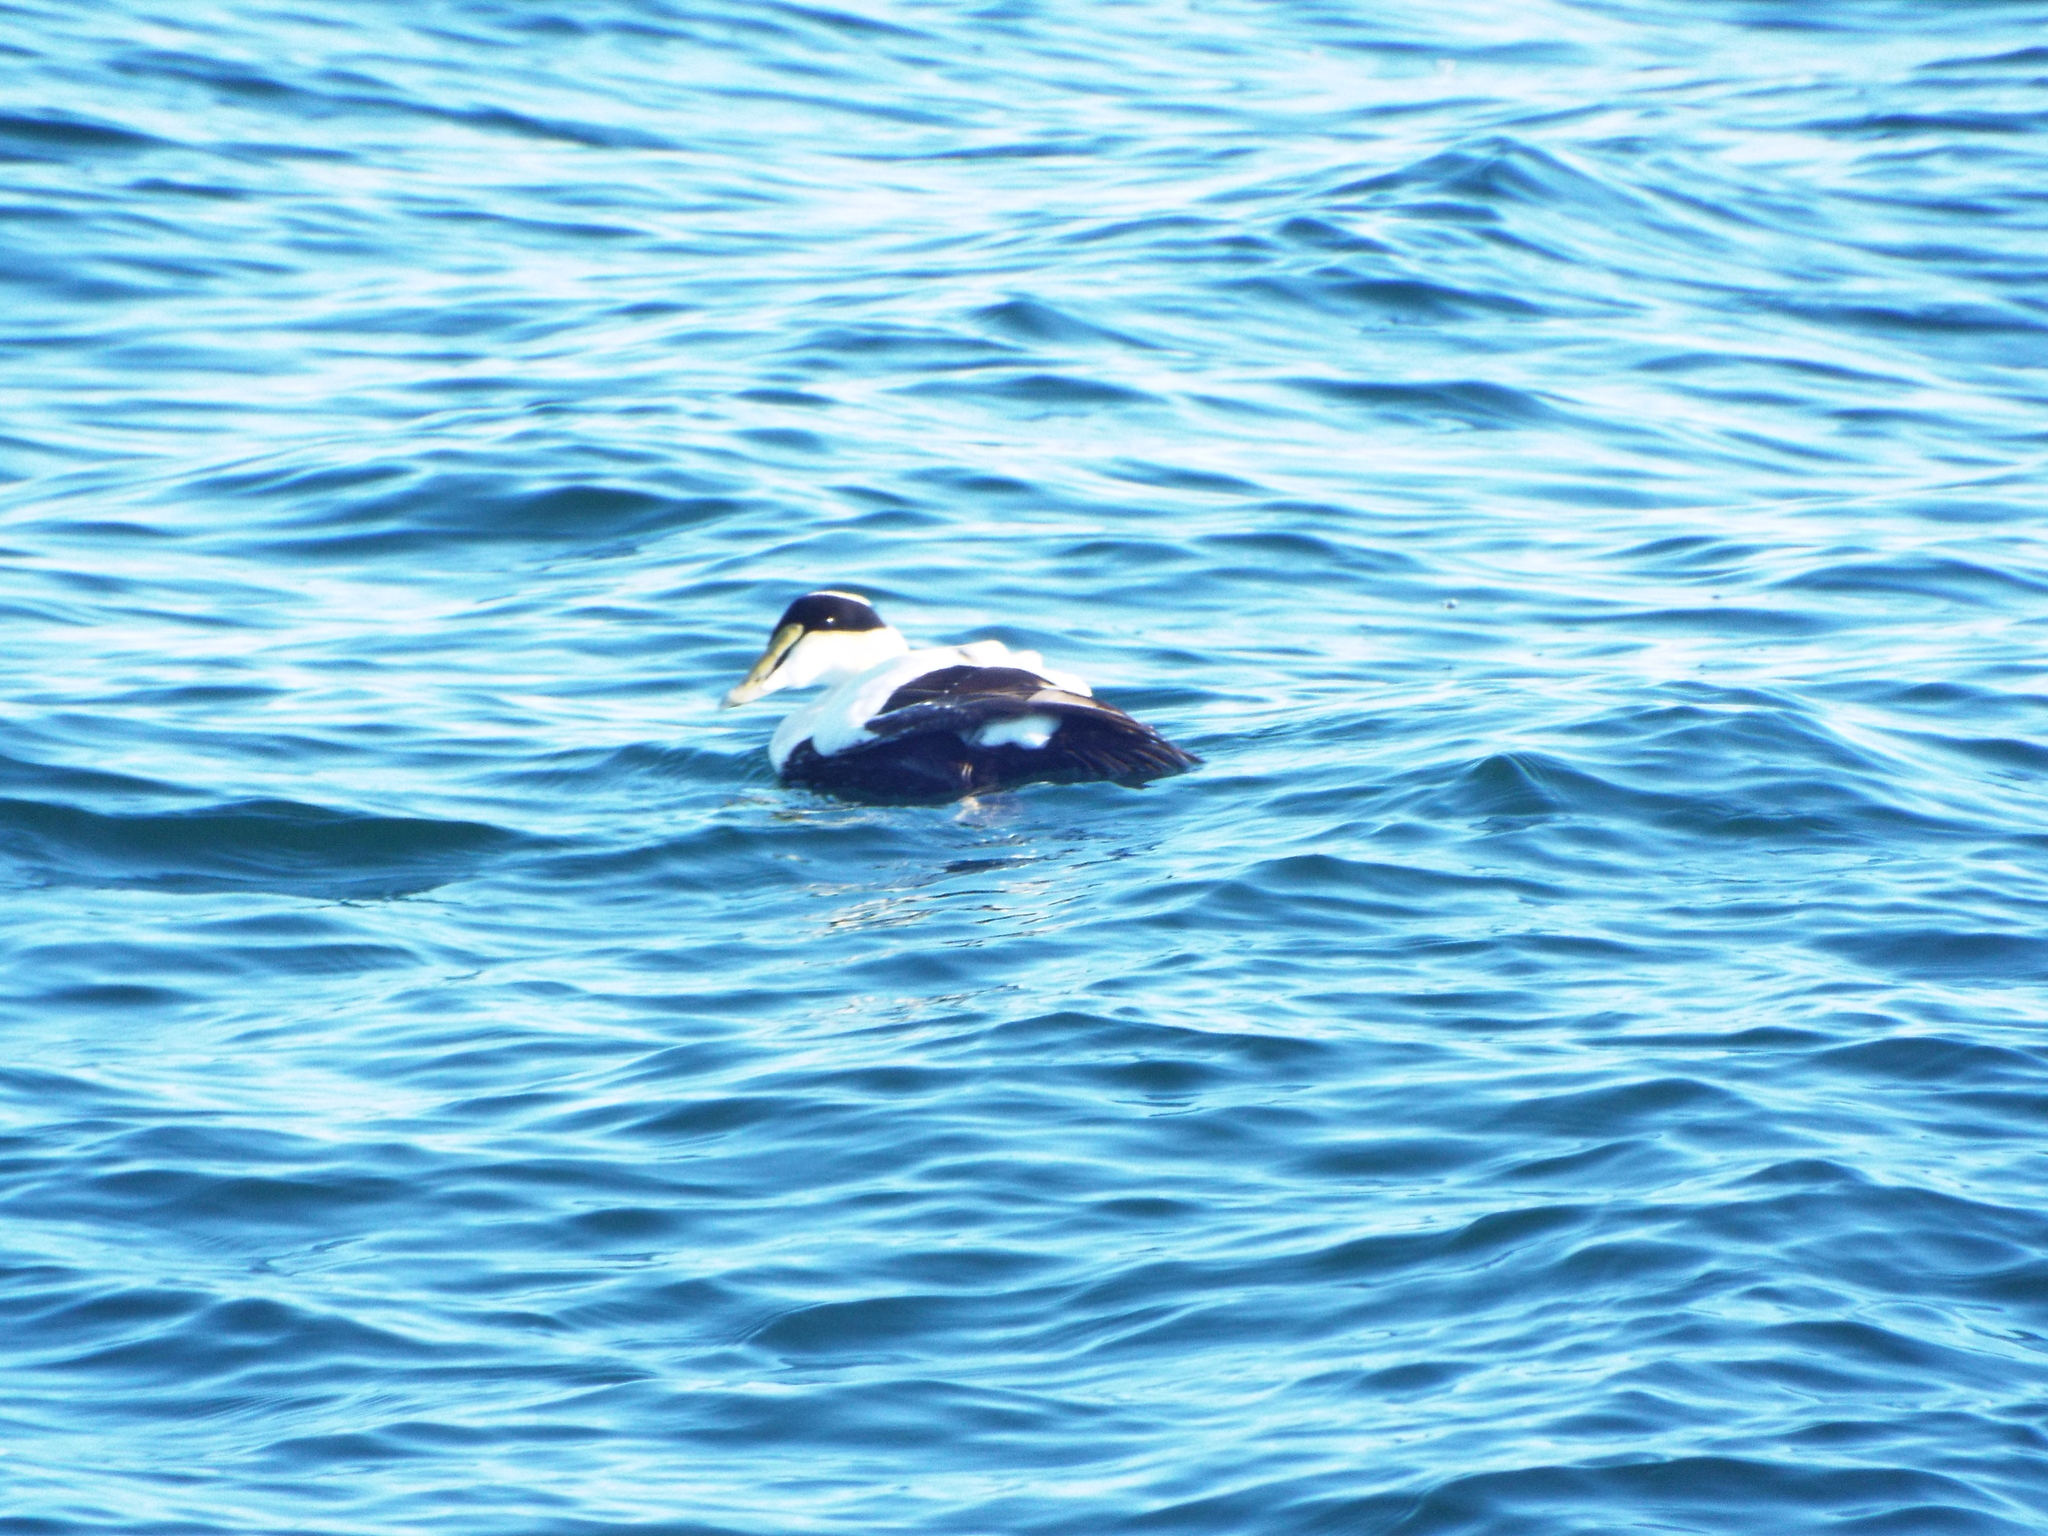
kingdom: Animalia
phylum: Chordata
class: Aves
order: Anseriformes
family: Anatidae
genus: Somateria
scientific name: Somateria mollissima
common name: Common eider
